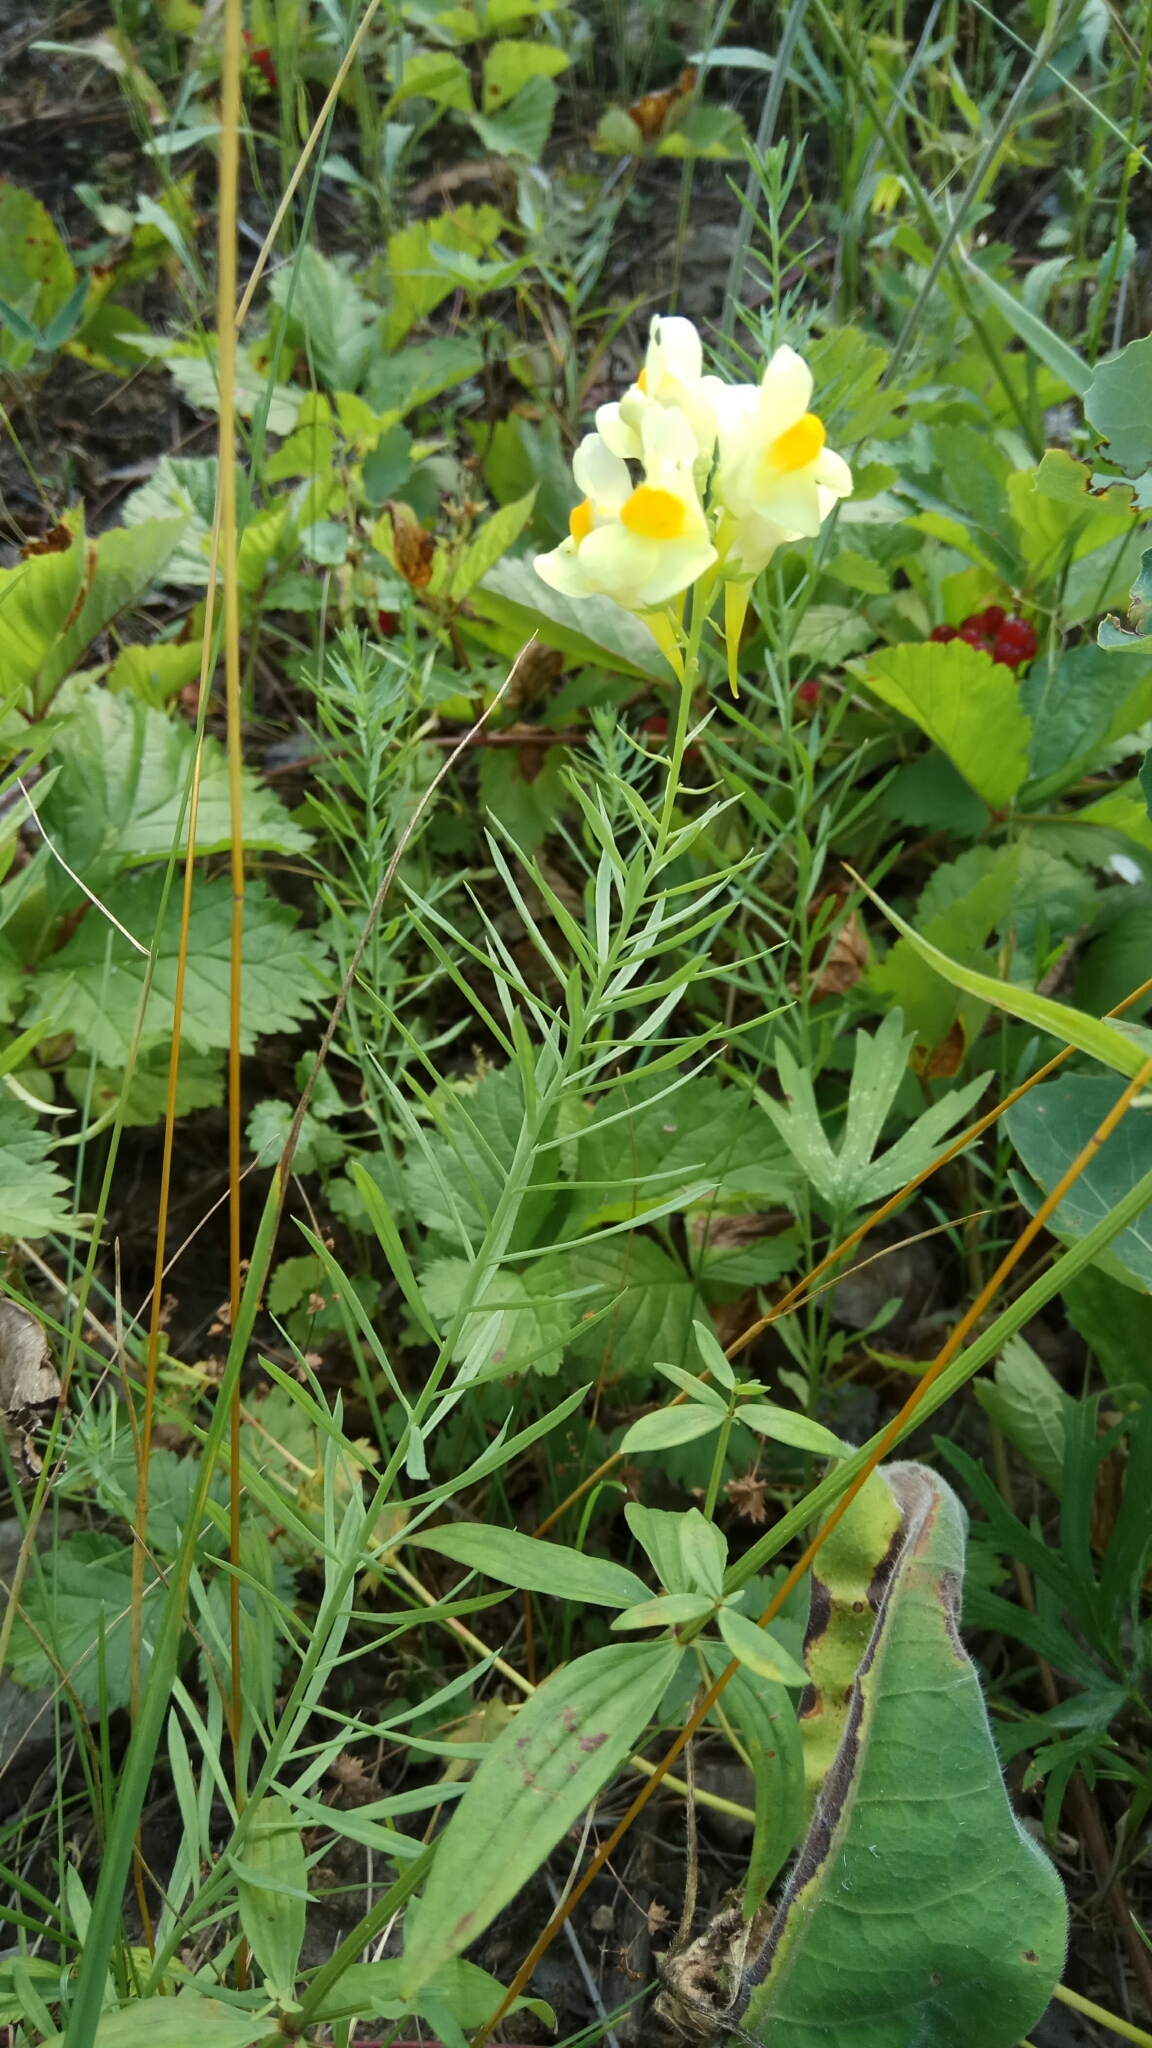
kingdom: Plantae
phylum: Tracheophyta
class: Magnoliopsida
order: Lamiales
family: Plantaginaceae
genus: Linaria
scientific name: Linaria vulgaris
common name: Butter and eggs
